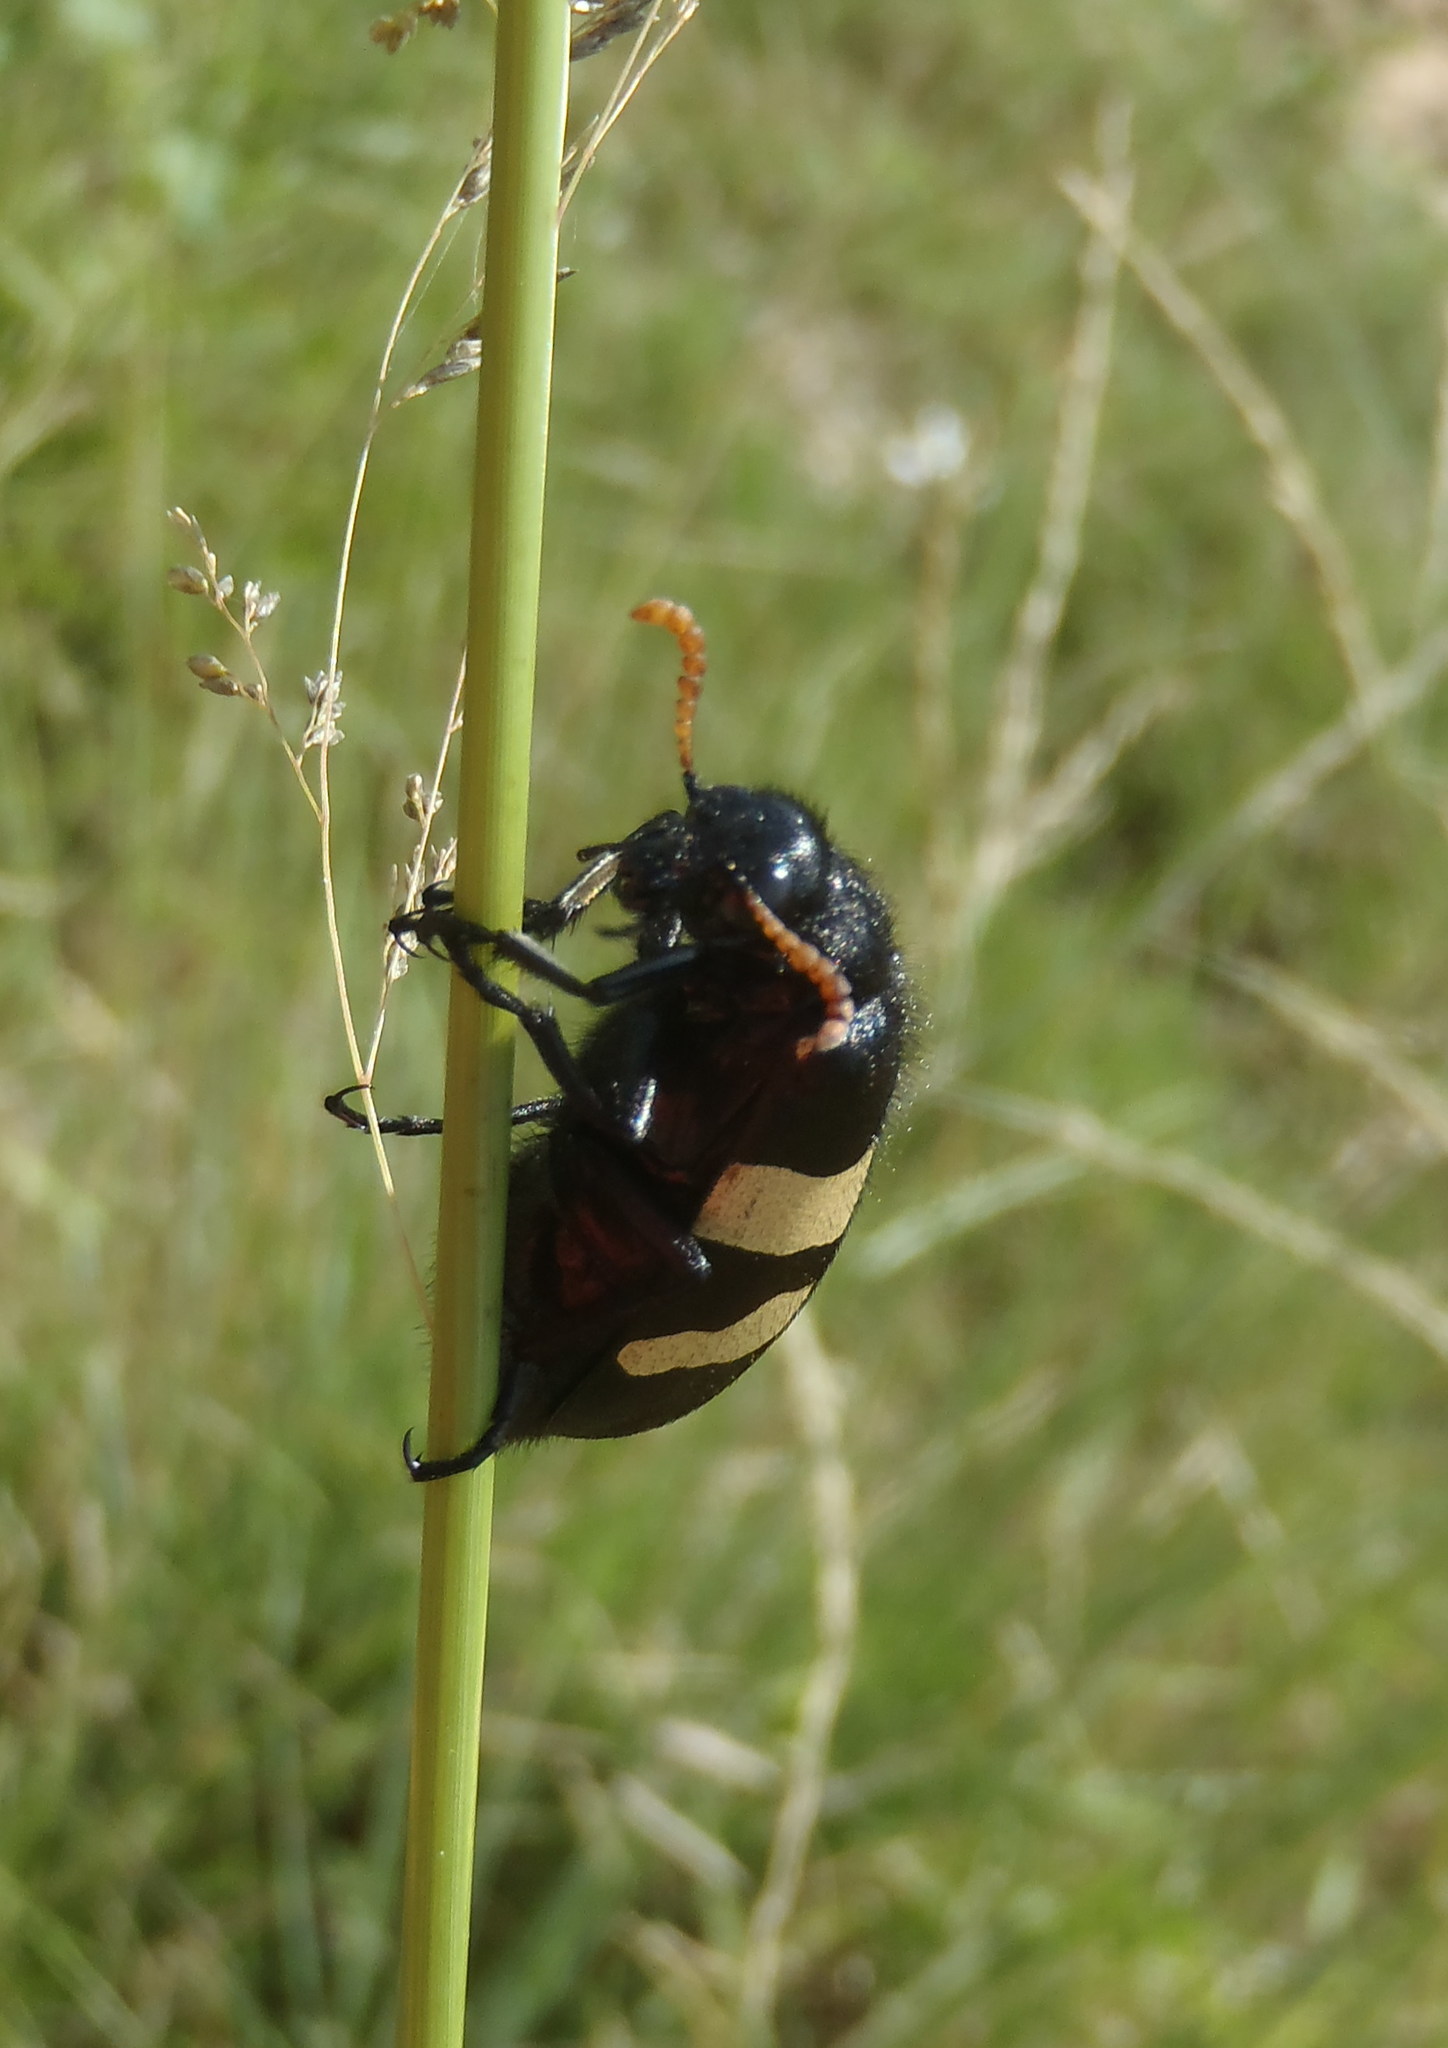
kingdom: Animalia
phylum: Arthropoda
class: Insecta
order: Coleoptera
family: Meloidae
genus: Hycleus
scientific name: Hycleus
